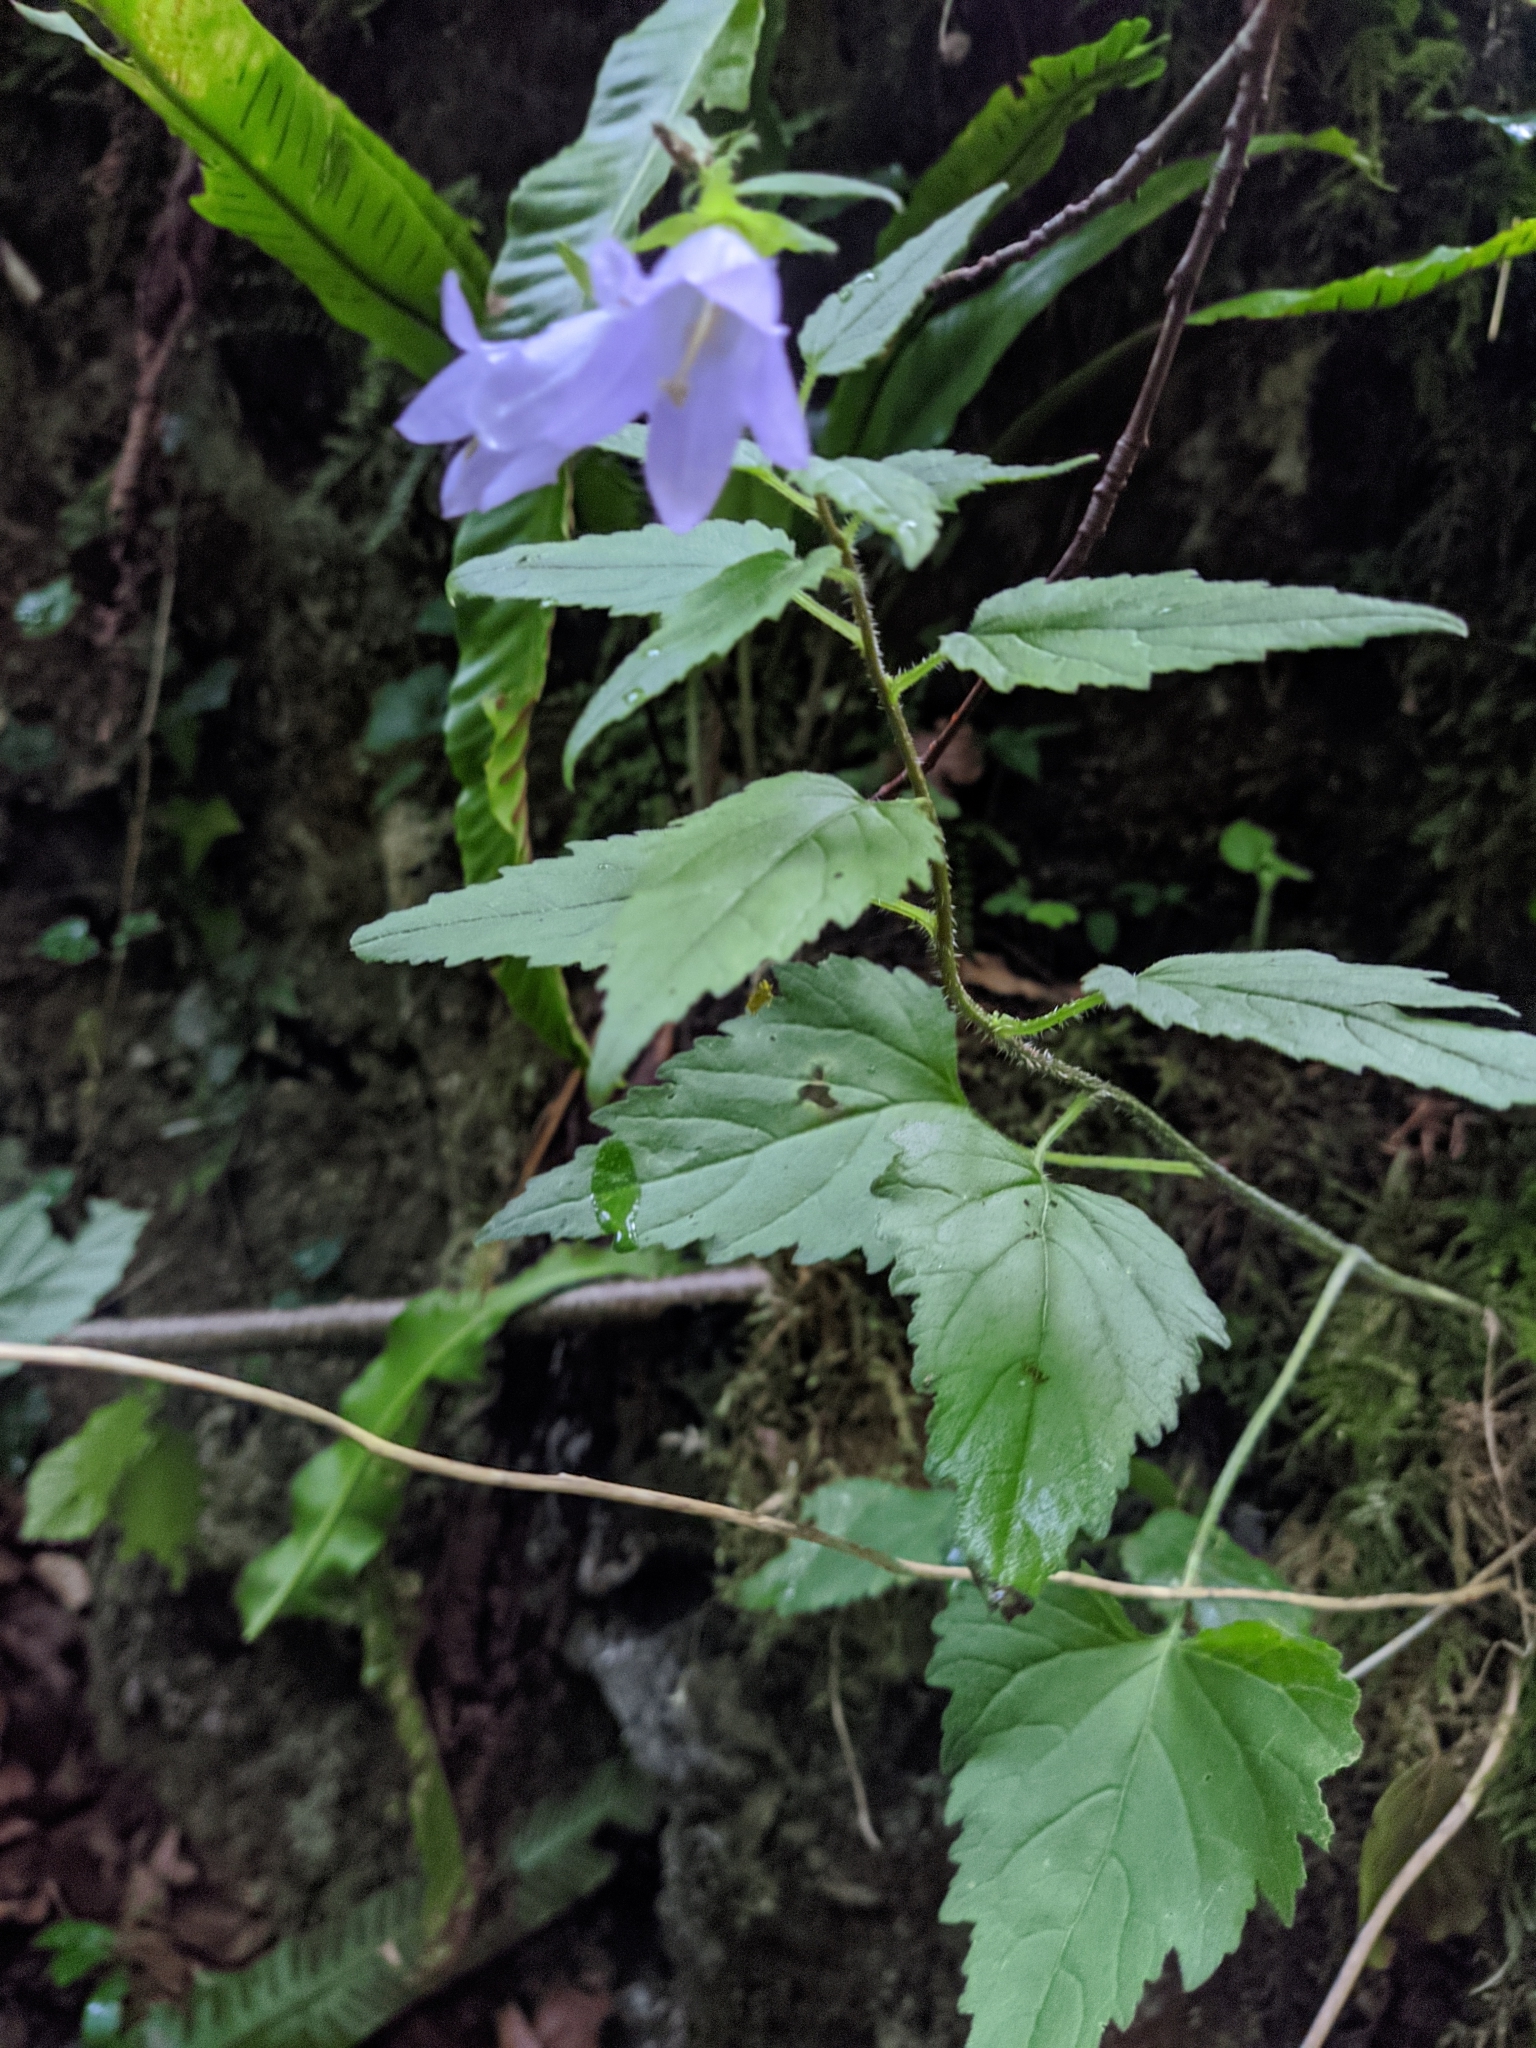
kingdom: Plantae
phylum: Tracheophyta
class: Magnoliopsida
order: Asterales
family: Campanulaceae
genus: Campanula
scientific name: Campanula trachelium
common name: Nettle-leaved bellflower
